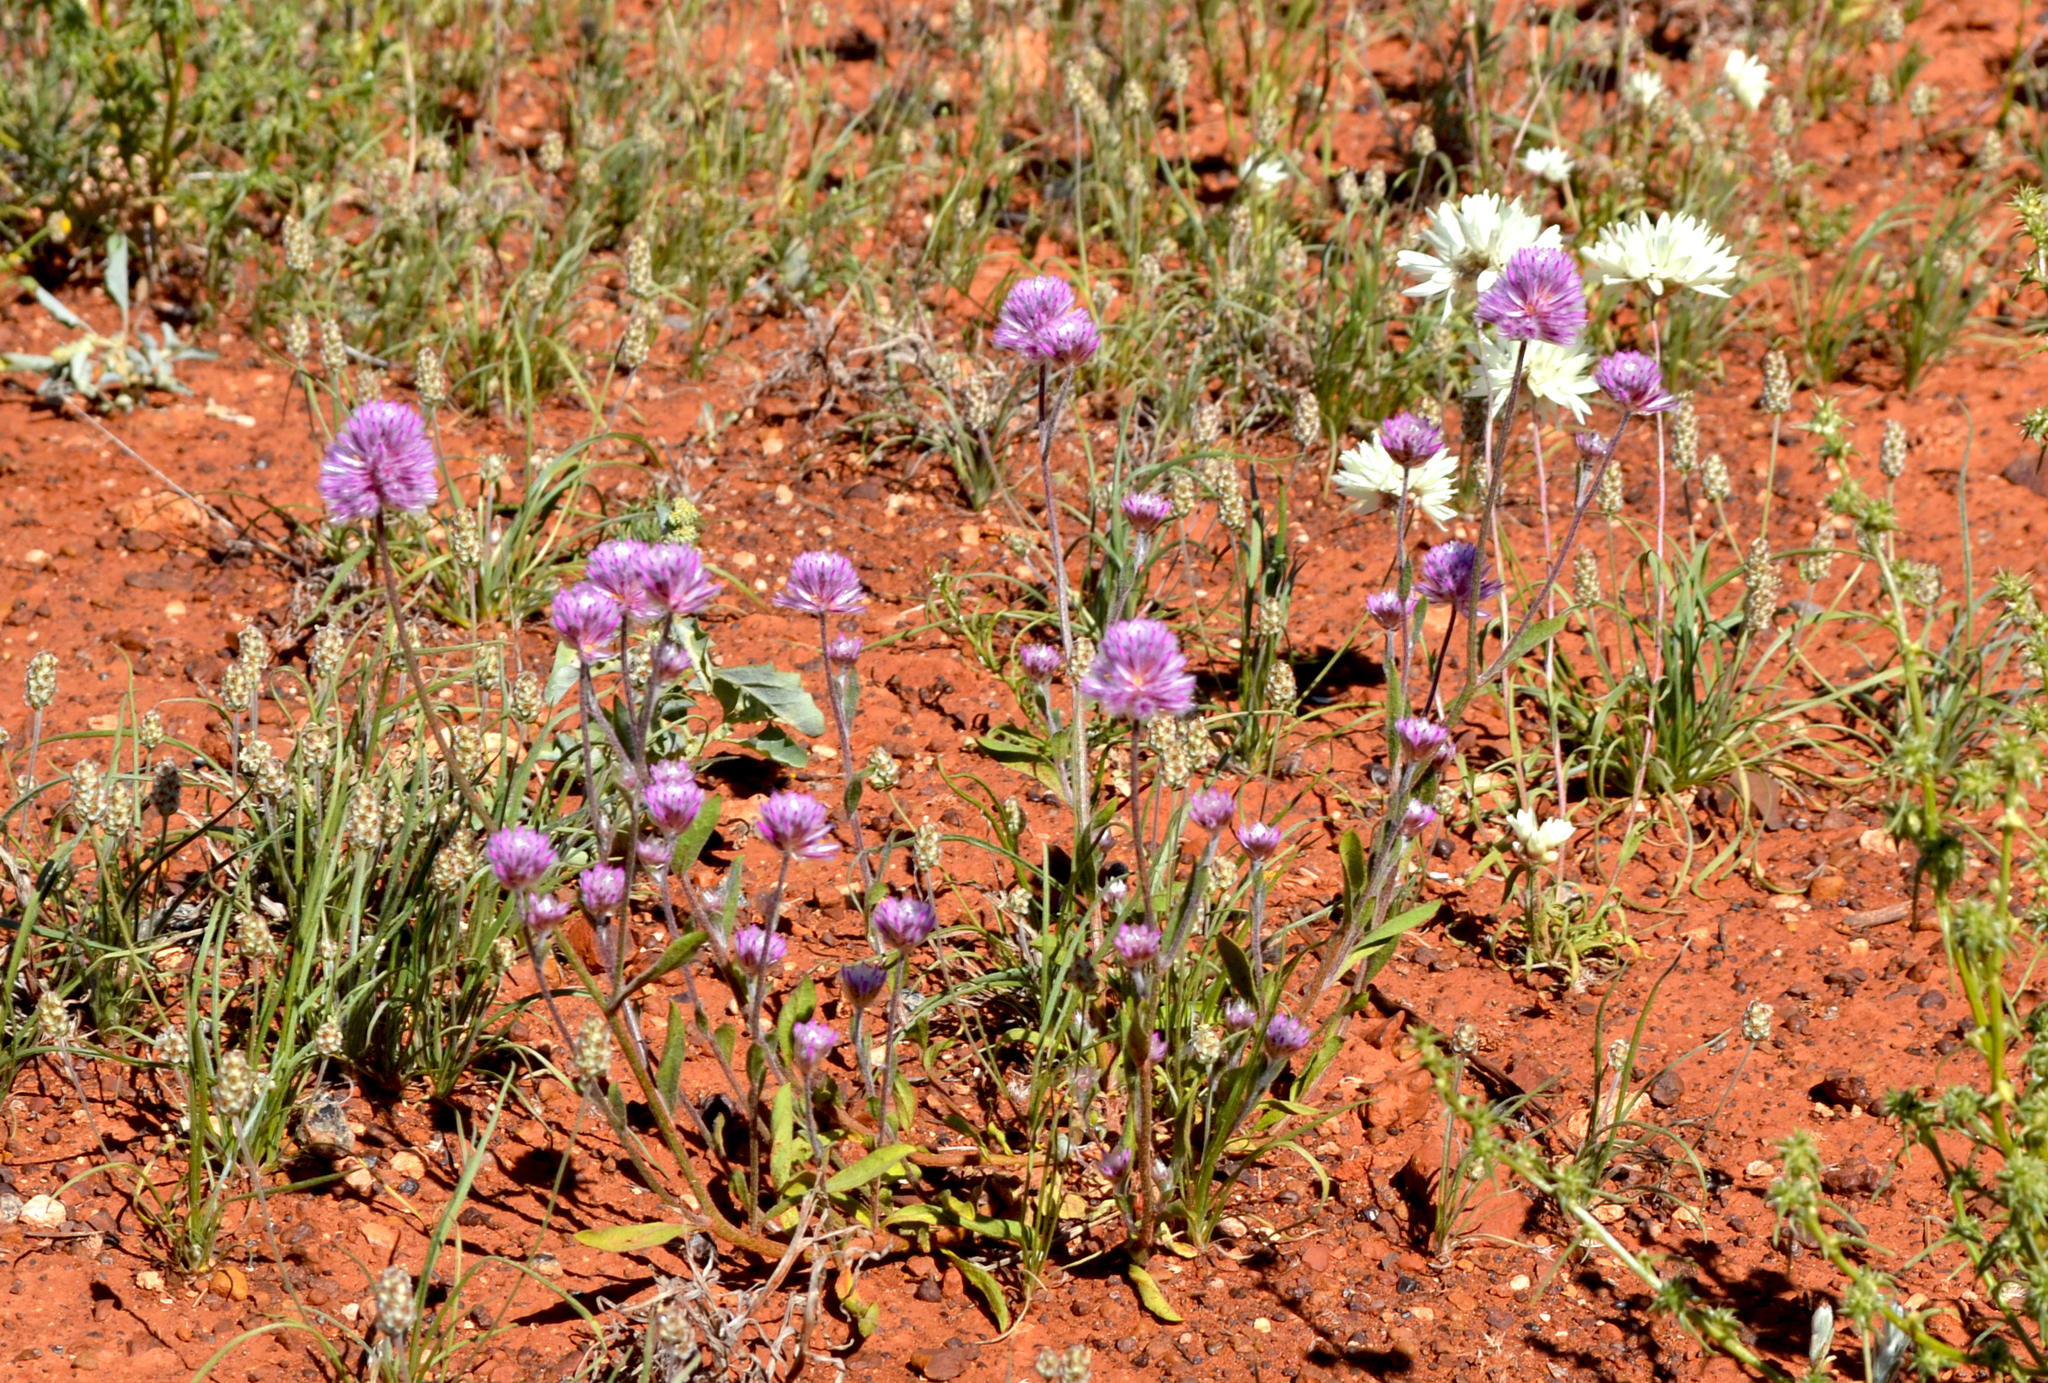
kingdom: Plantae
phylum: Tracheophyta
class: Magnoliopsida
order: Caryophyllales
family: Amaranthaceae
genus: Ptilotus
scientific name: Ptilotus helipteroides
